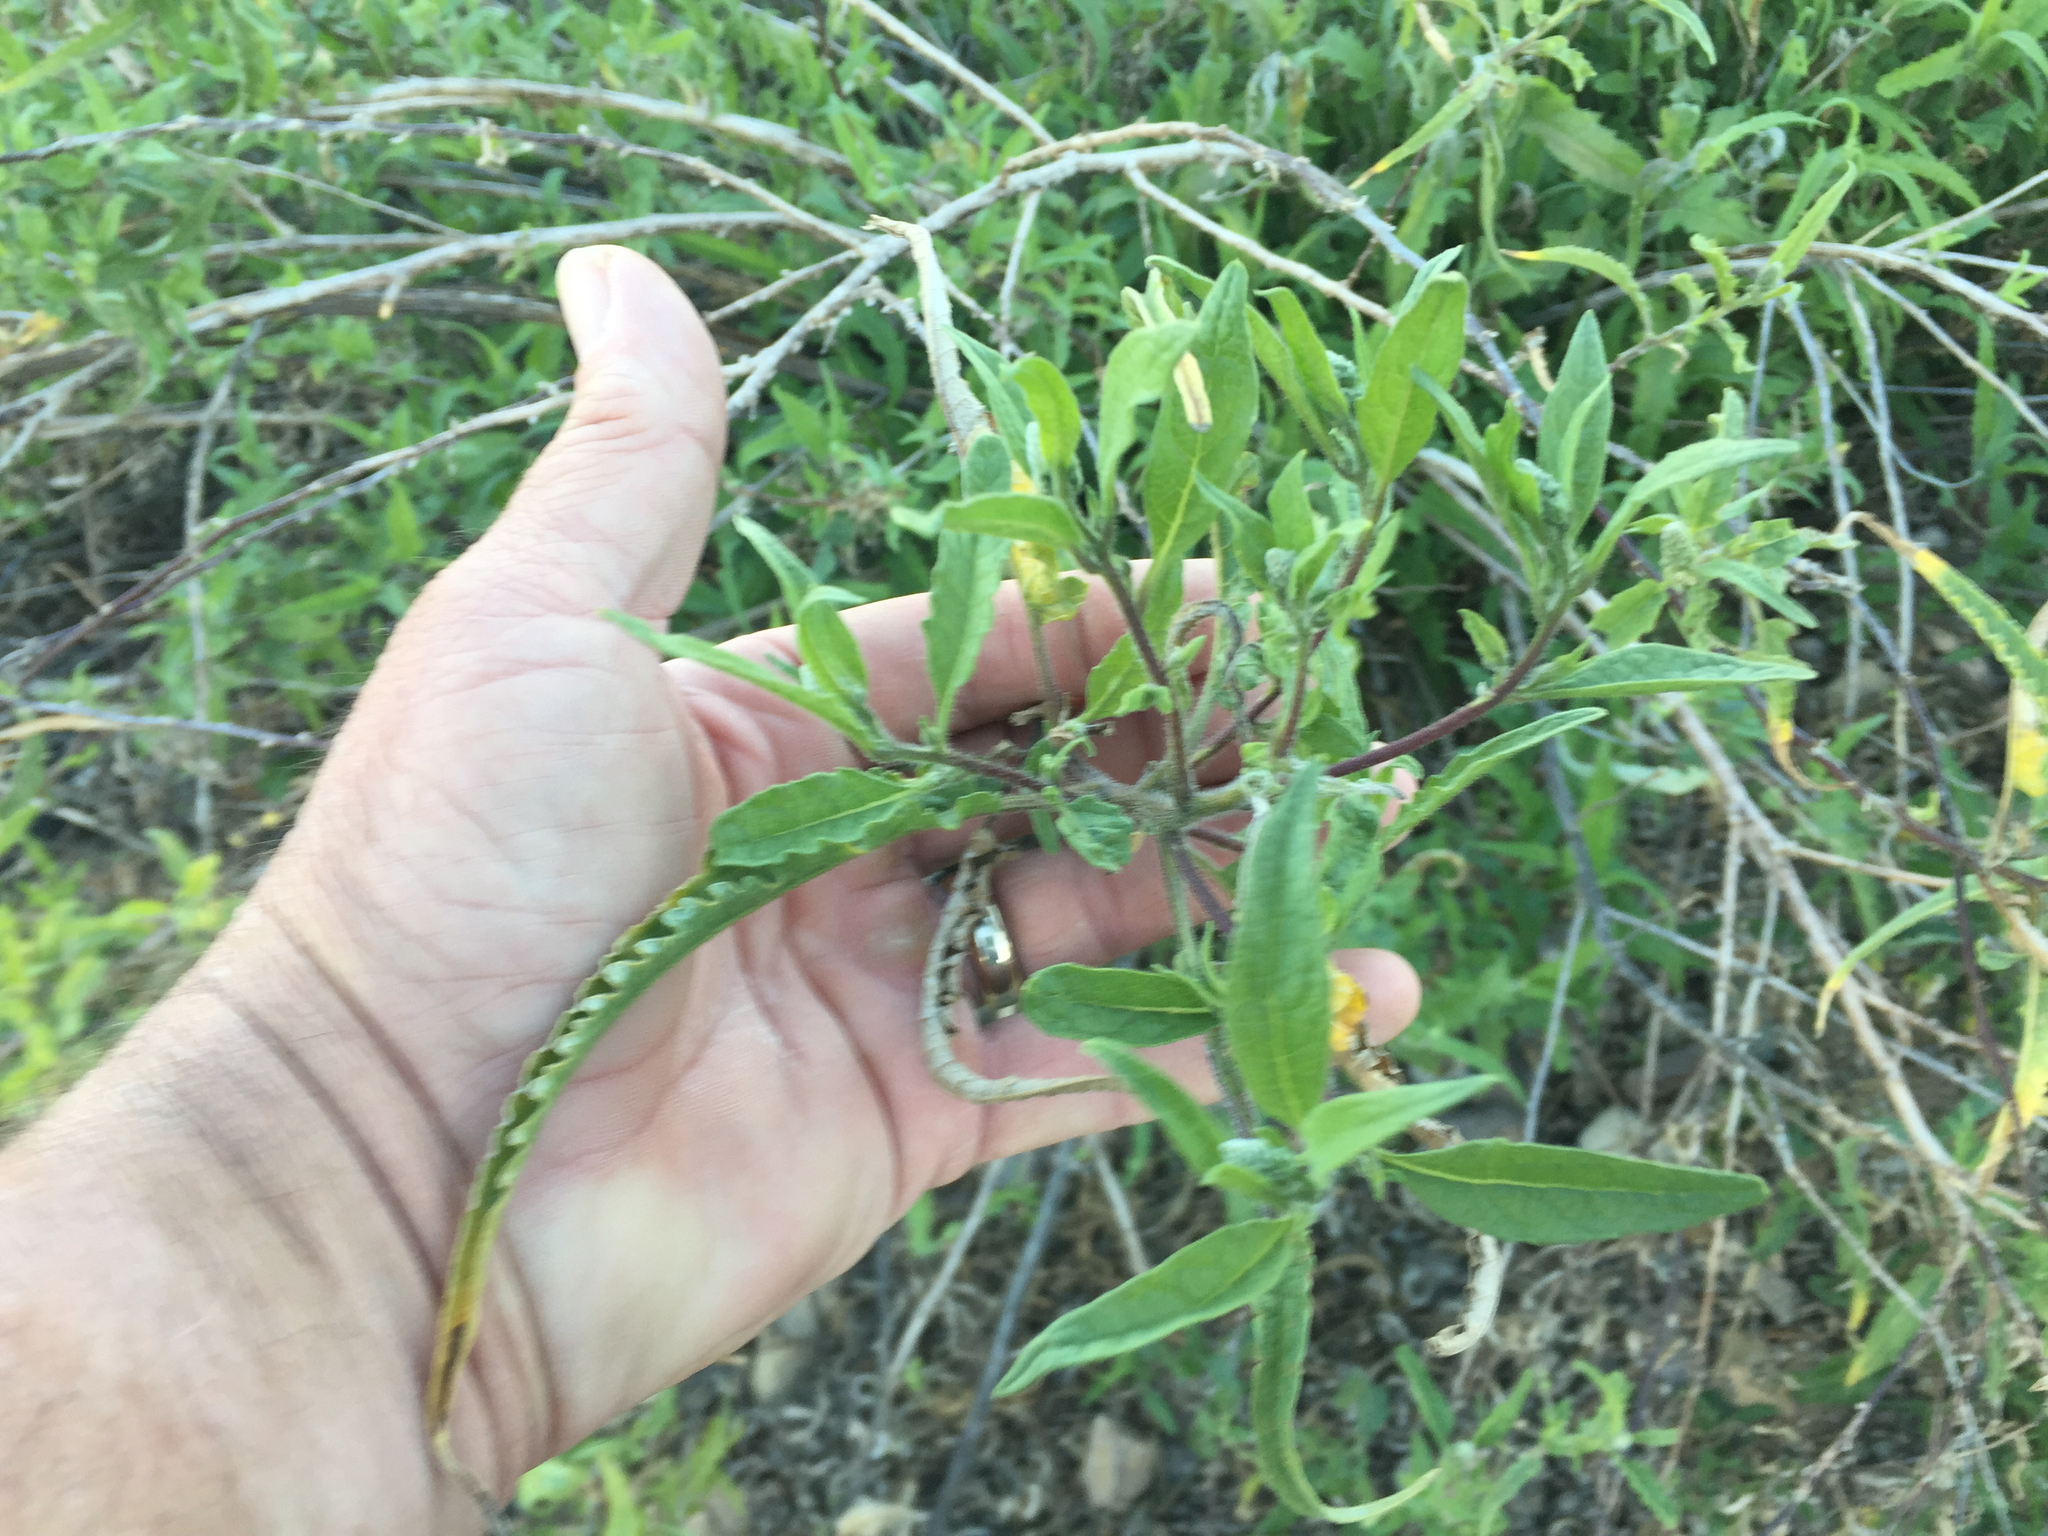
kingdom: Plantae
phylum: Tracheophyta
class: Magnoliopsida
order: Asterales
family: Asteraceae
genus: Ambrosia
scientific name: Ambrosia ambrosioides
